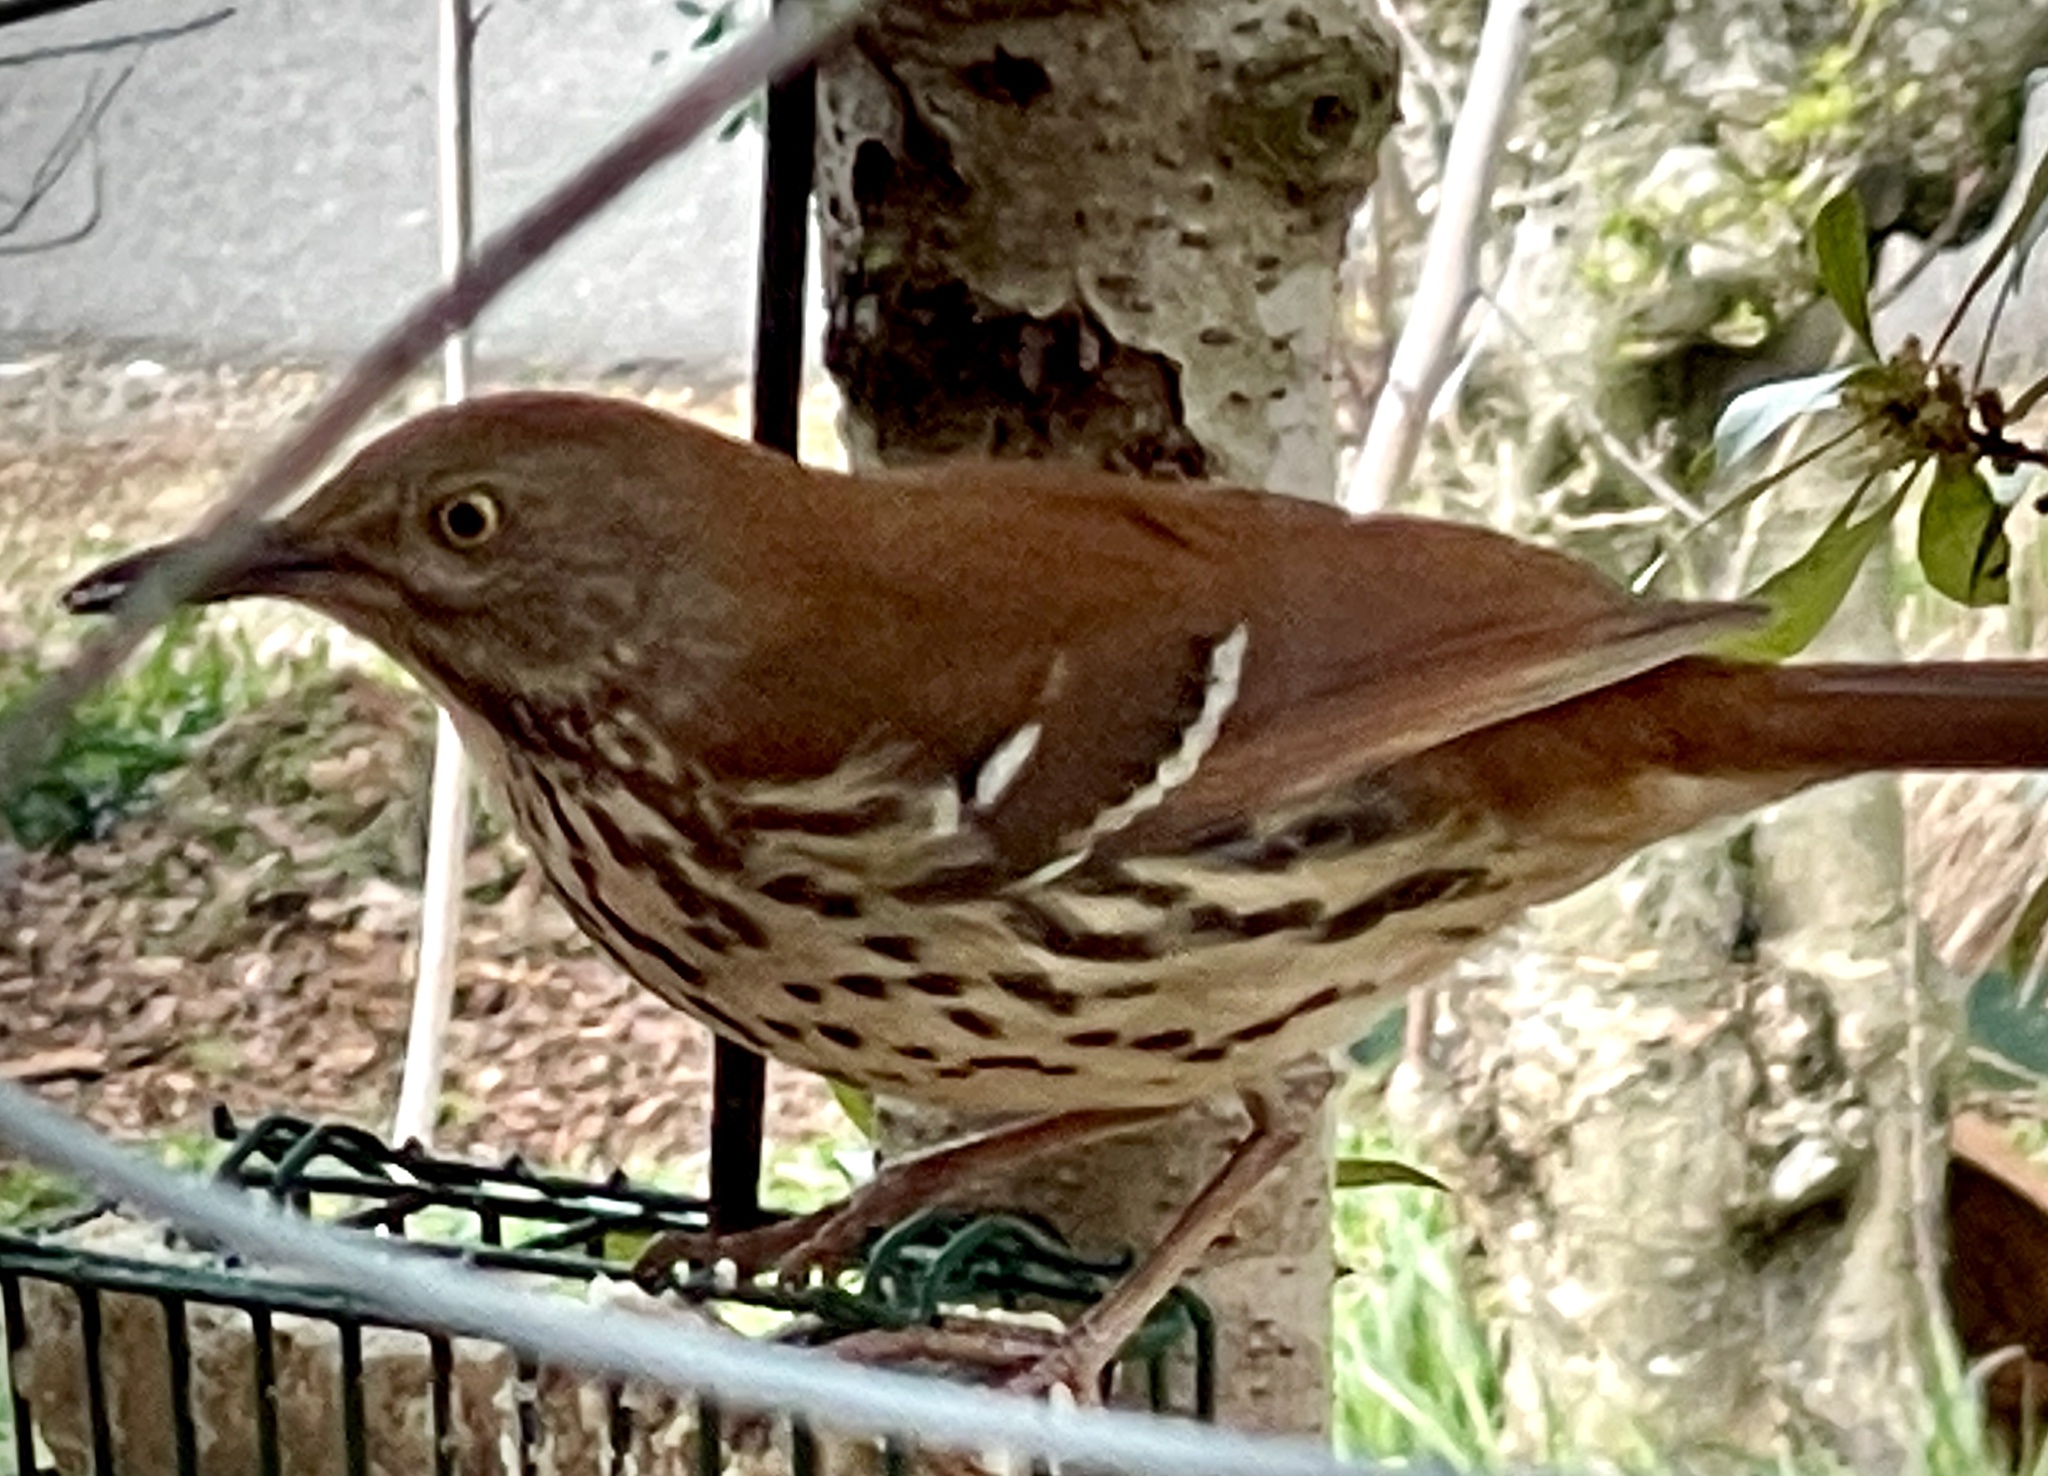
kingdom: Animalia
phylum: Chordata
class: Aves
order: Passeriformes
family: Mimidae
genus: Toxostoma
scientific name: Toxostoma rufum
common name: Brown thrasher
